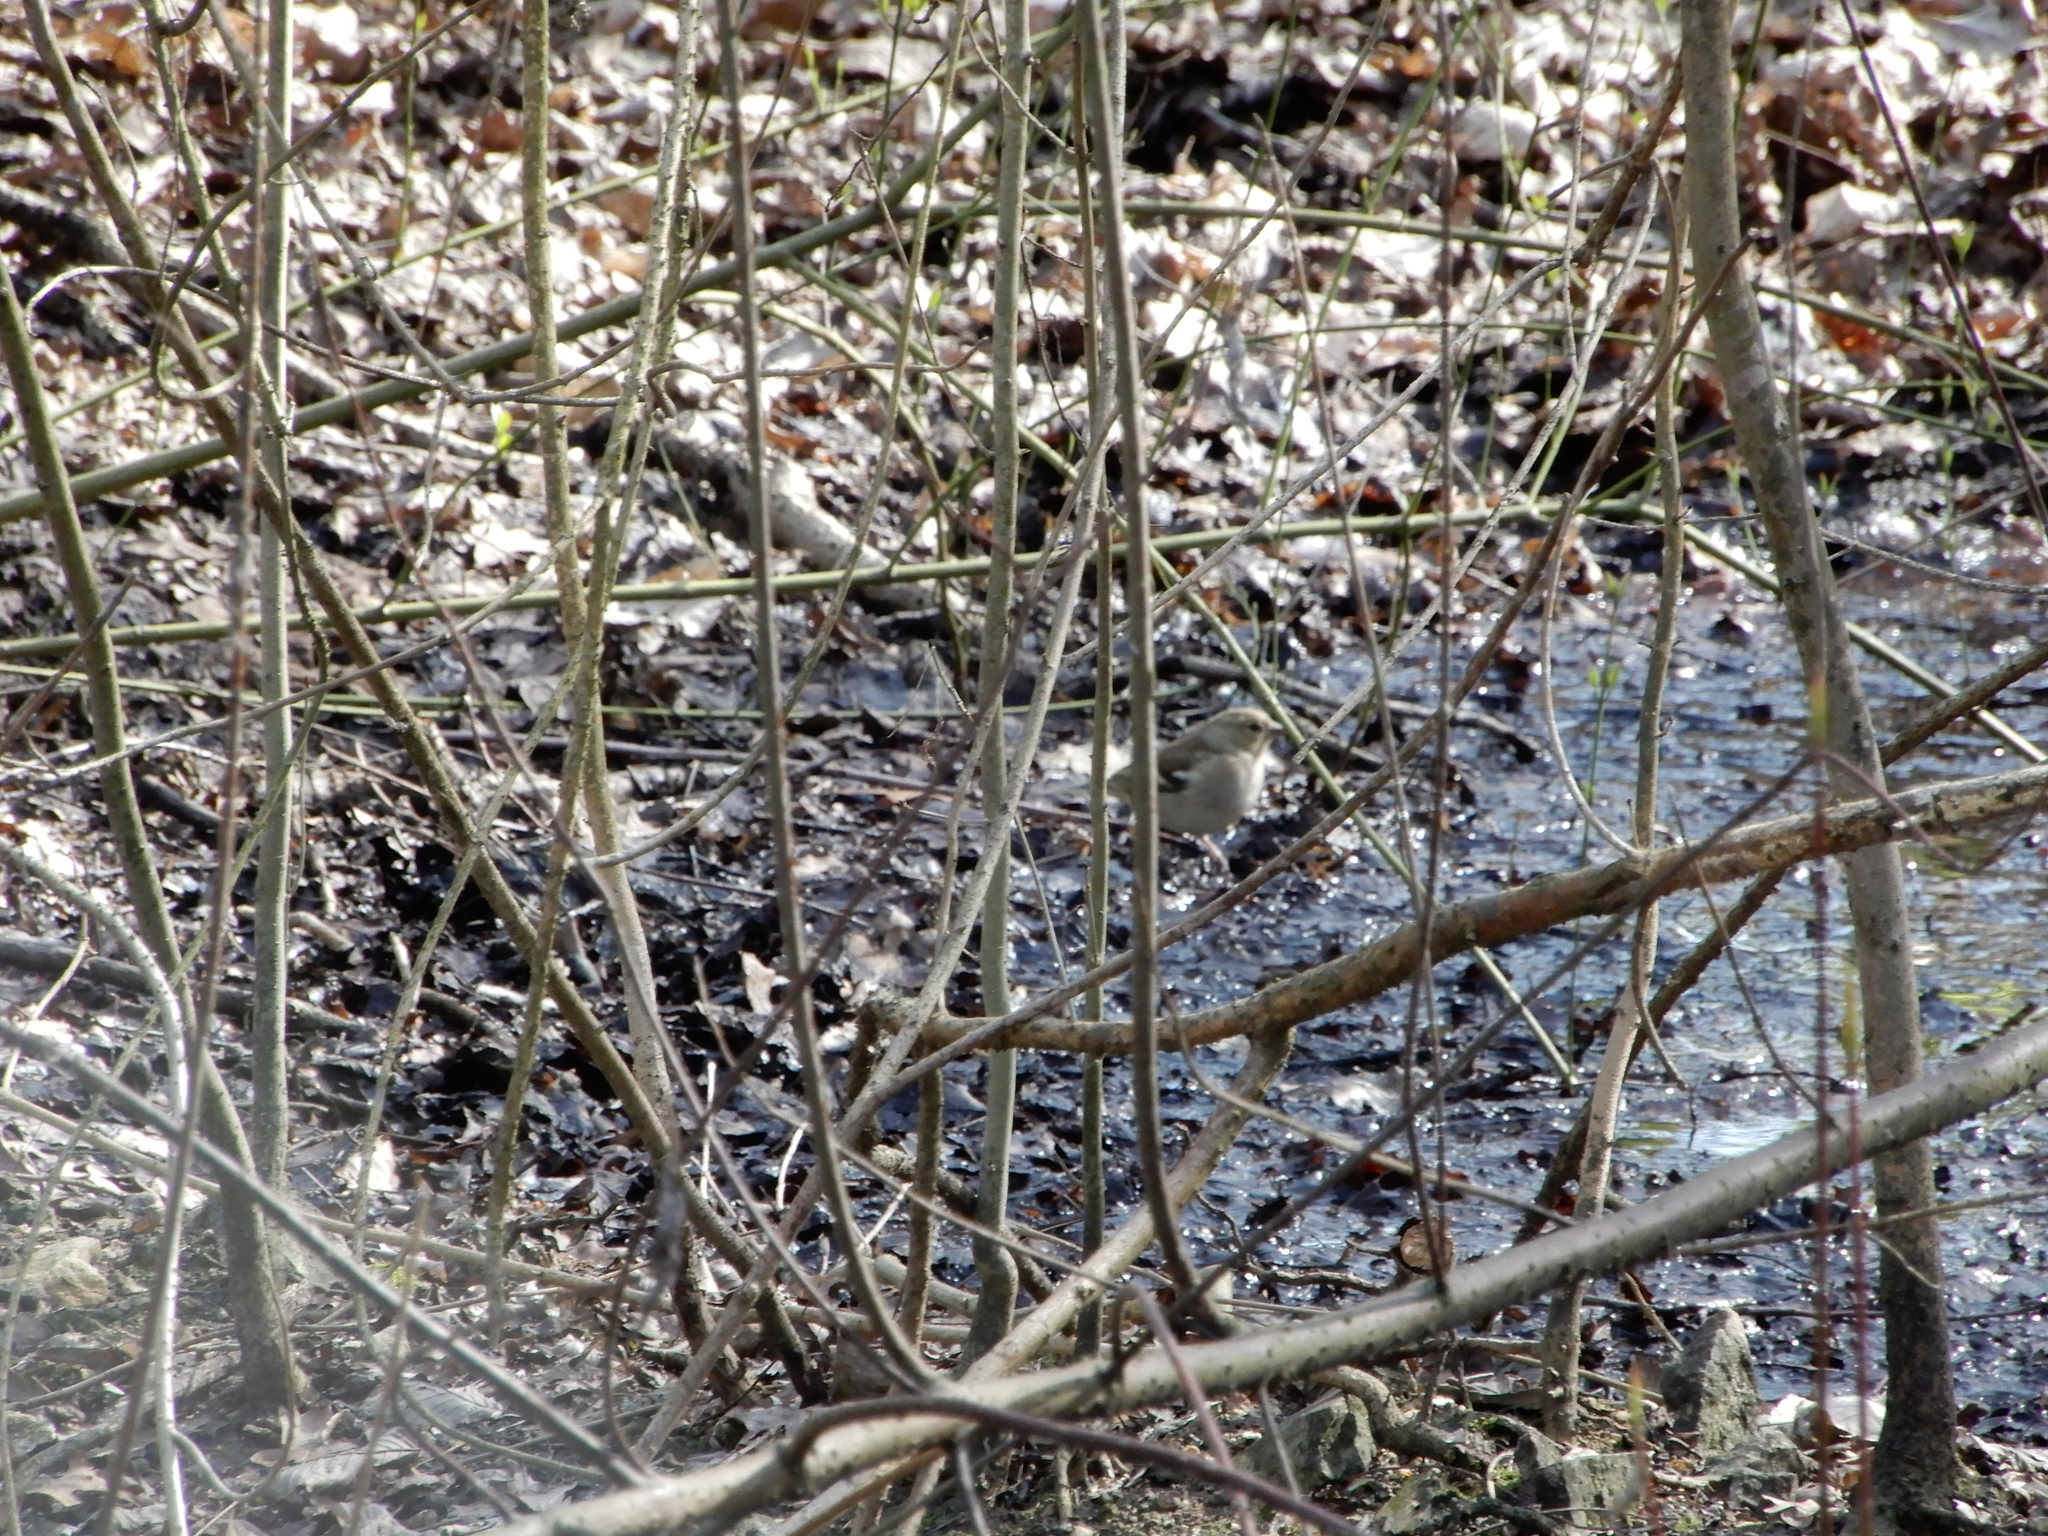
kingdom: Animalia
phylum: Chordata
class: Aves
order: Passeriformes
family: Fringillidae
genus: Fringilla
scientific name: Fringilla coelebs
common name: Common chaffinch
